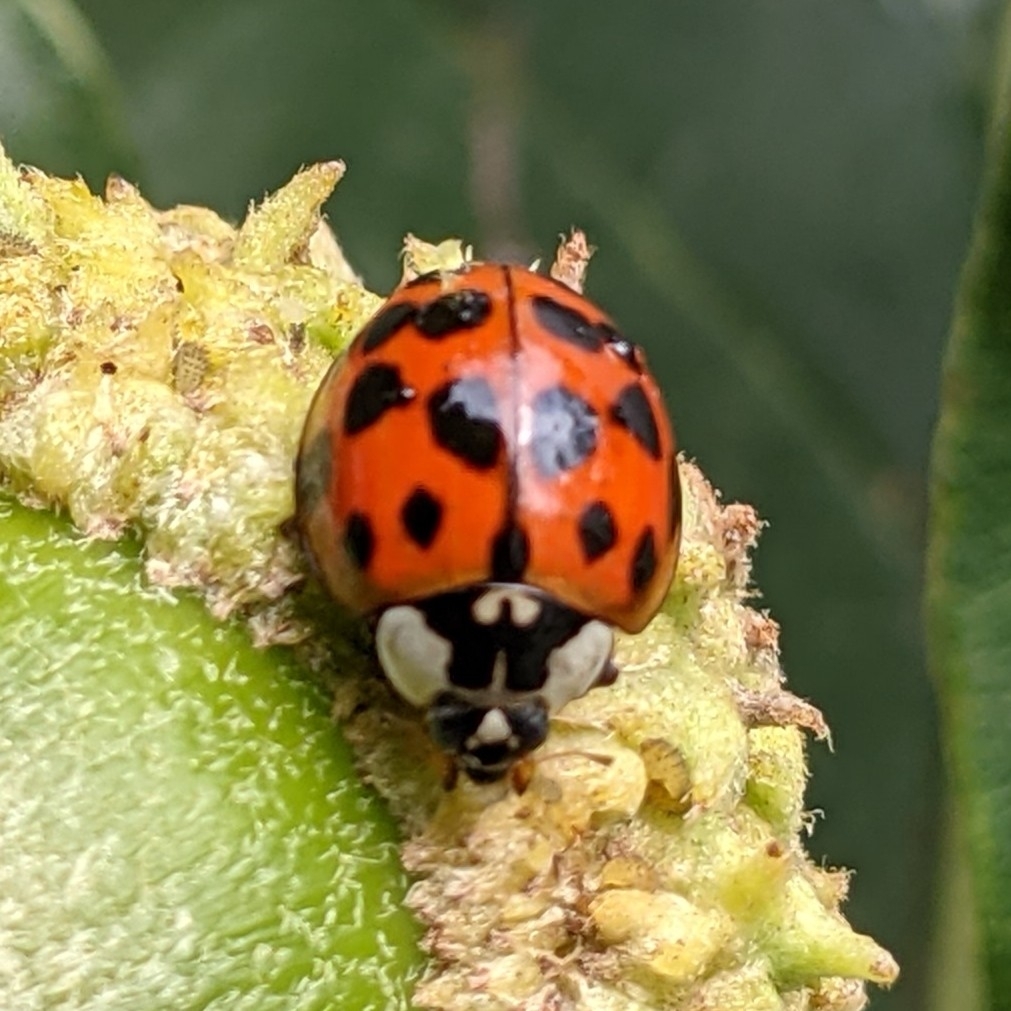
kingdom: Animalia
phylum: Arthropoda
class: Insecta
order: Coleoptera
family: Coccinellidae
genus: Harmonia
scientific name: Harmonia axyridis
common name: Harlequin ladybird
